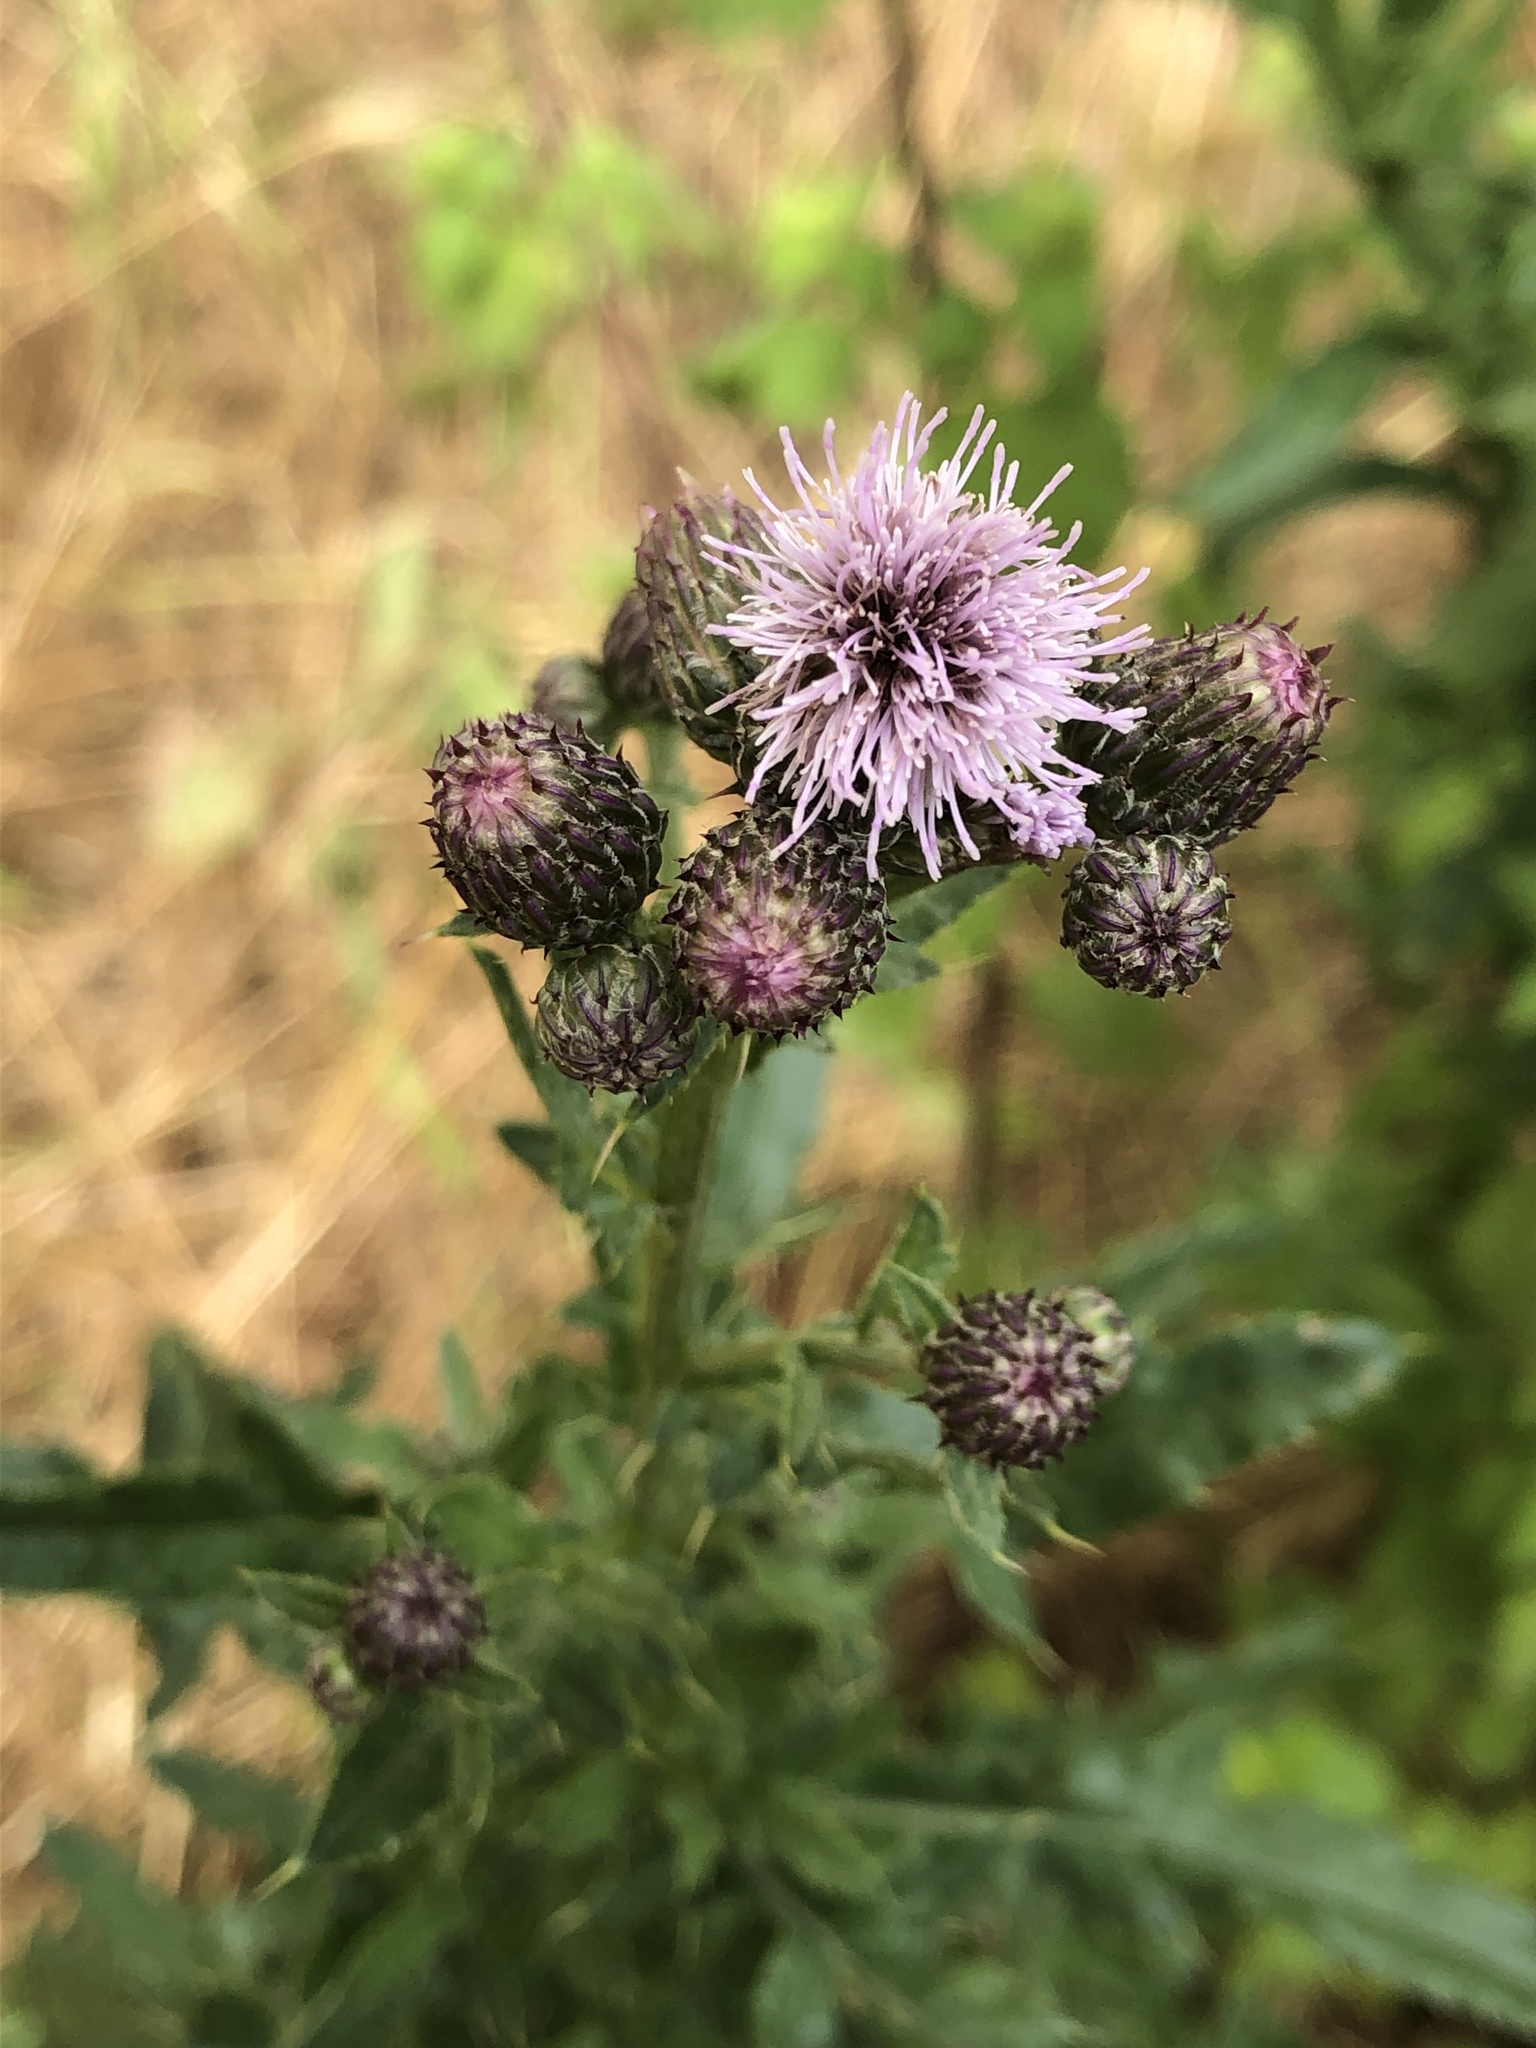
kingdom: Plantae
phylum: Tracheophyta
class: Magnoliopsida
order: Asterales
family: Asteraceae
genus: Cirsium
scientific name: Cirsium arvense
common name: Creeping thistle
